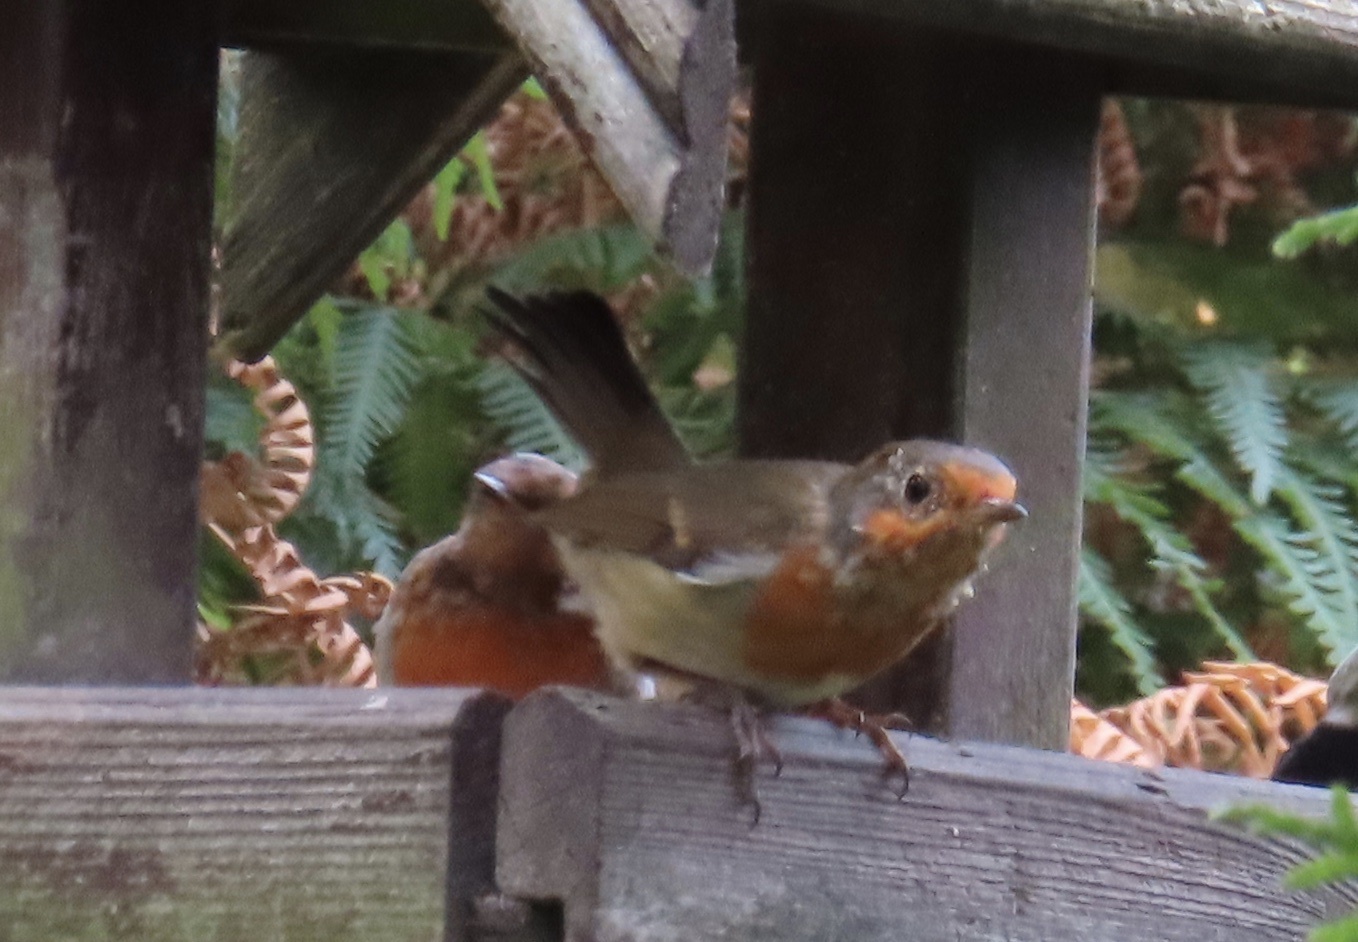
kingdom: Animalia
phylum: Chordata
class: Aves
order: Passeriformes
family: Muscicapidae
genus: Erithacus
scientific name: Erithacus rubecula
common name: European robin
